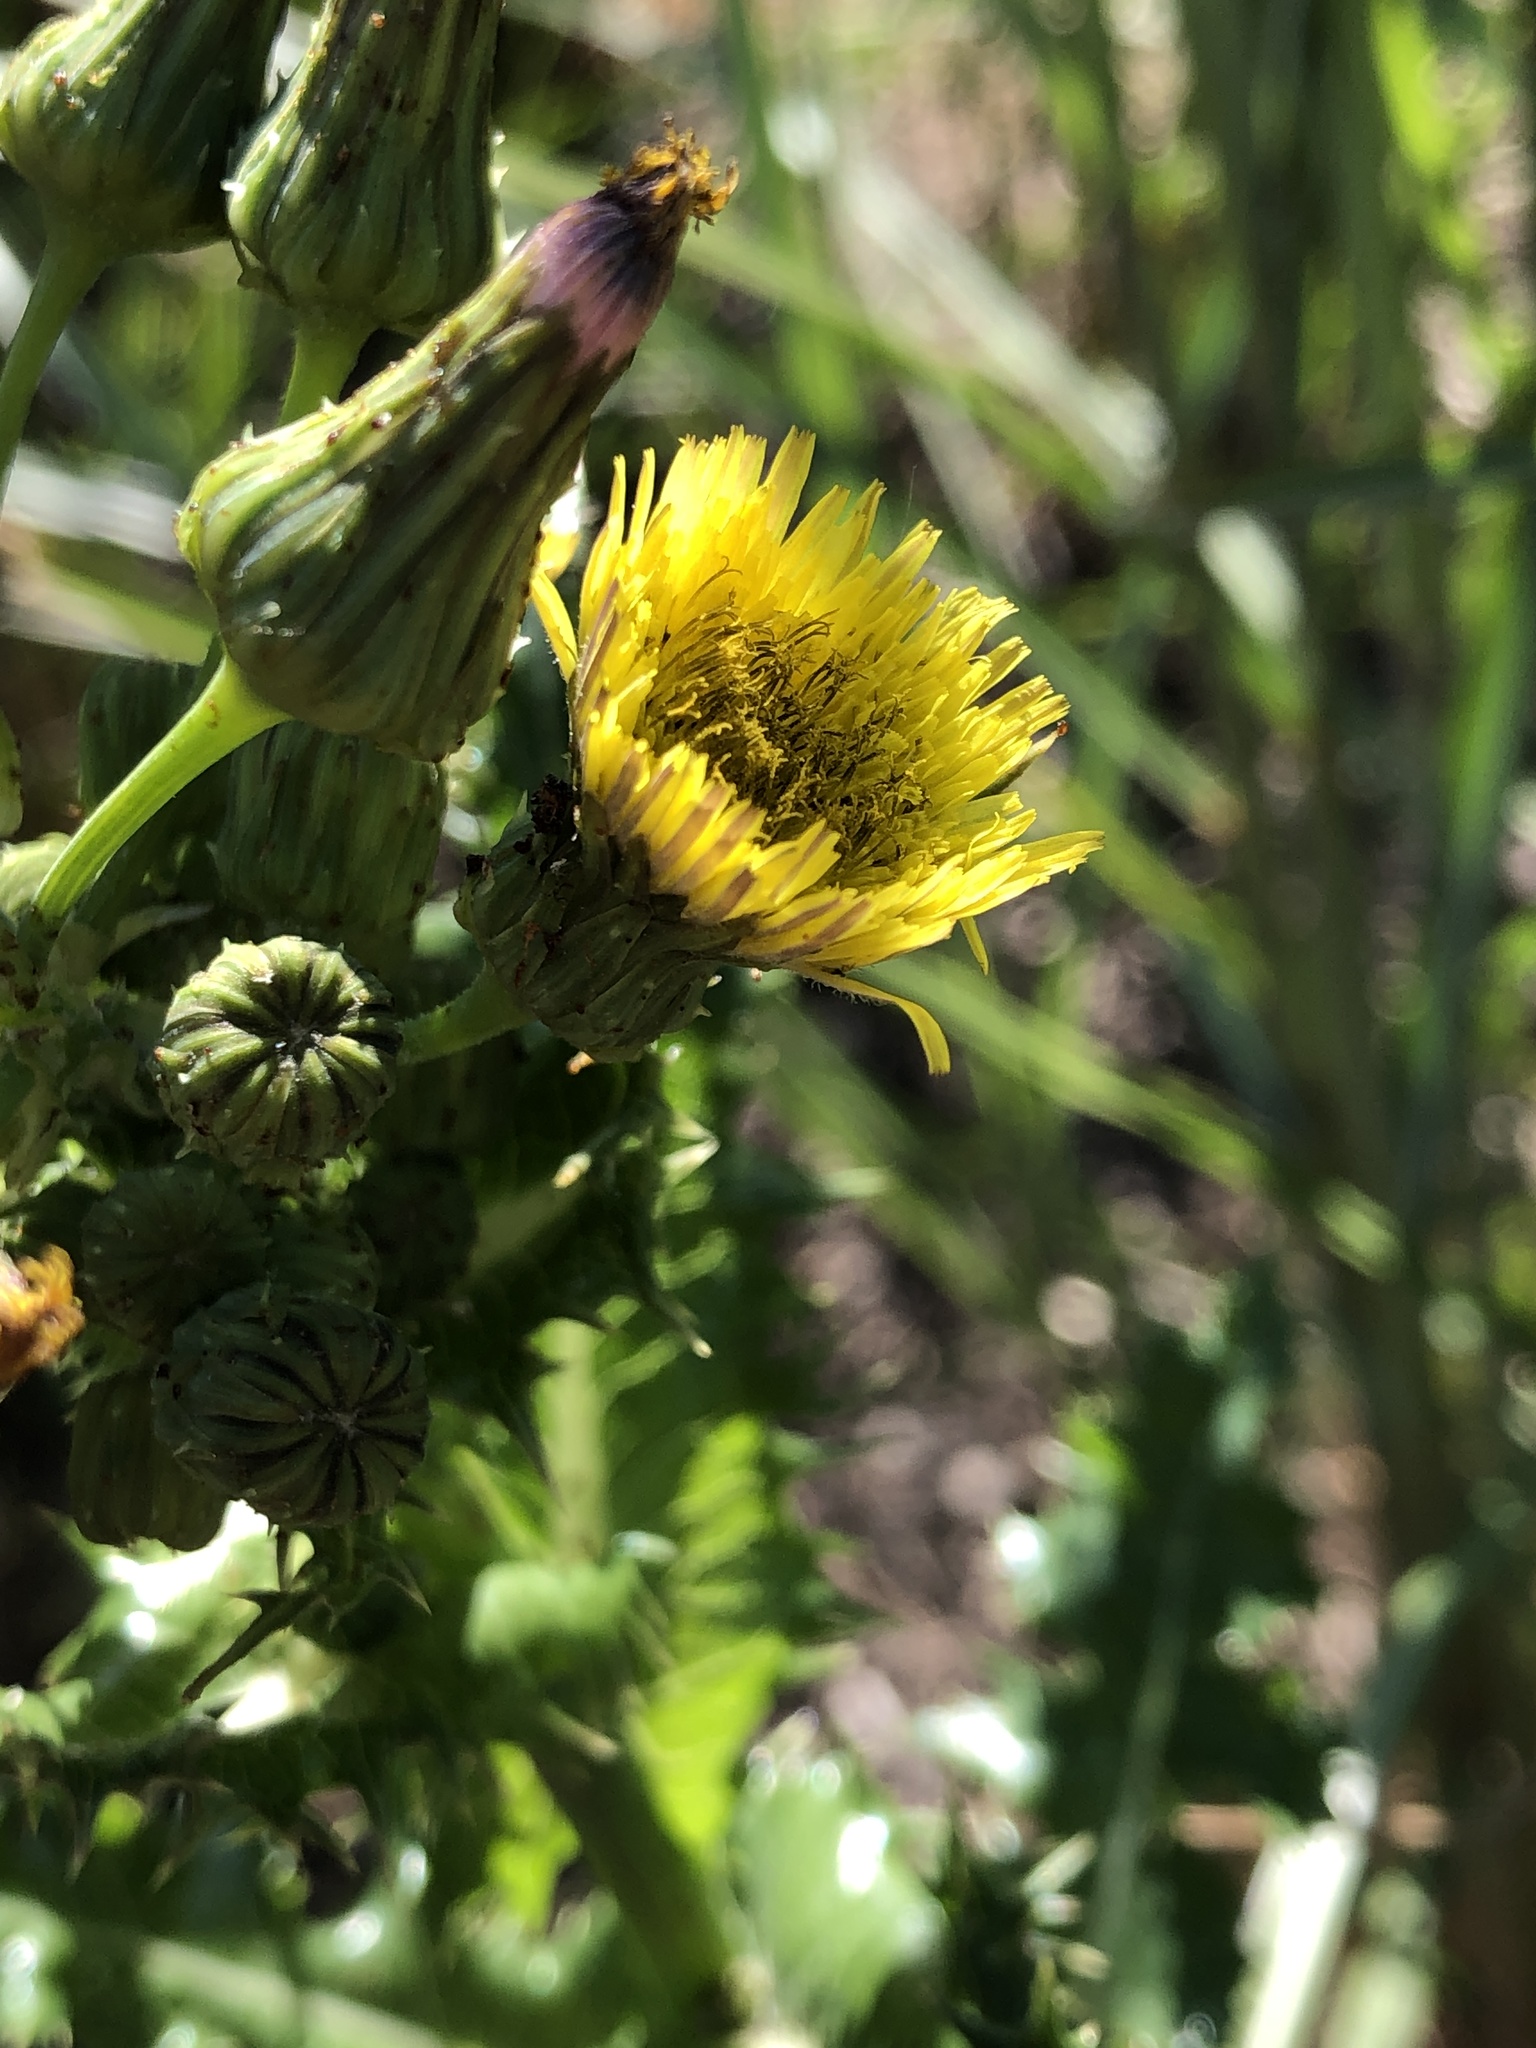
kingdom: Plantae
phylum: Tracheophyta
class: Magnoliopsida
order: Asterales
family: Asteraceae
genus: Sonchus
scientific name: Sonchus asper
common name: Prickly sow-thistle
